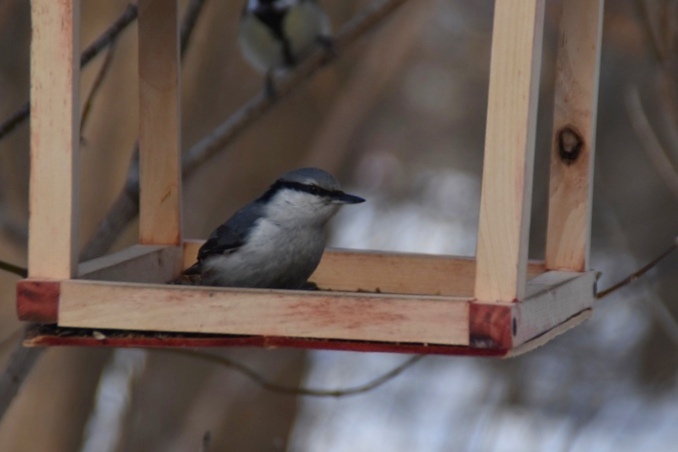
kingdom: Animalia
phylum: Chordata
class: Aves
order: Passeriformes
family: Sittidae
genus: Sitta
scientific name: Sitta europaea
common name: Eurasian nuthatch
